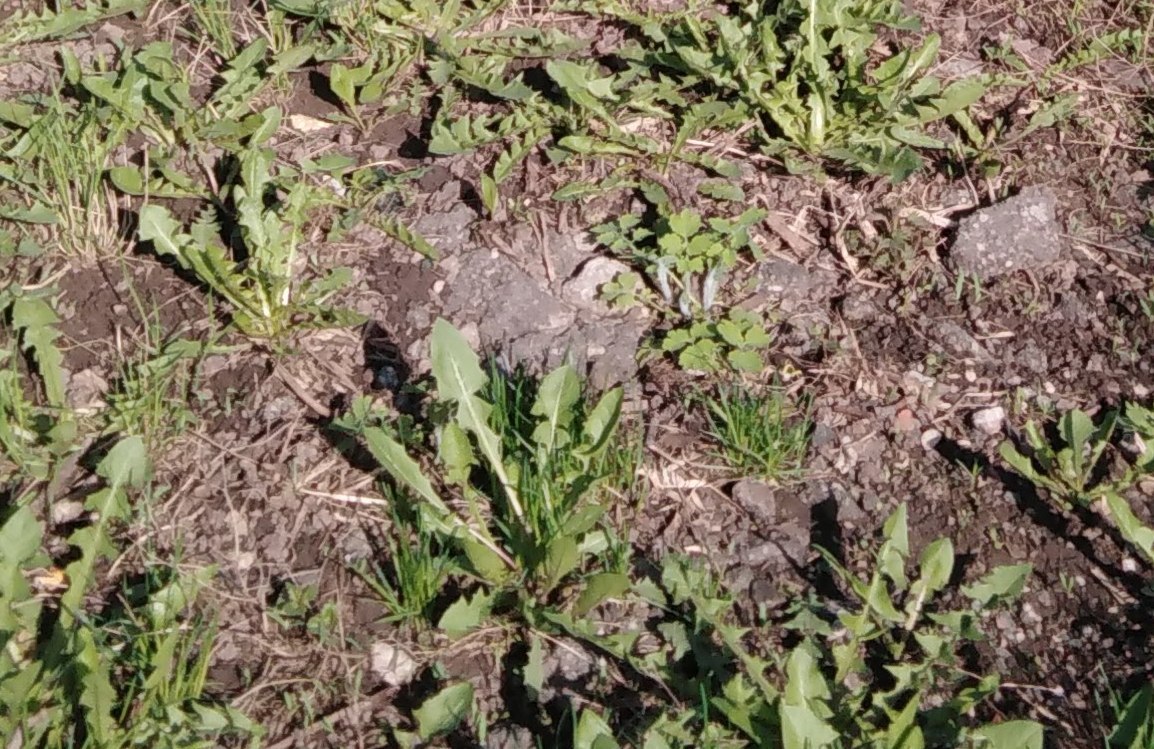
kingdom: Plantae
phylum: Tracheophyta
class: Magnoliopsida
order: Asterales
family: Asteraceae
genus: Taraxacum
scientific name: Taraxacum officinale
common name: Common dandelion
